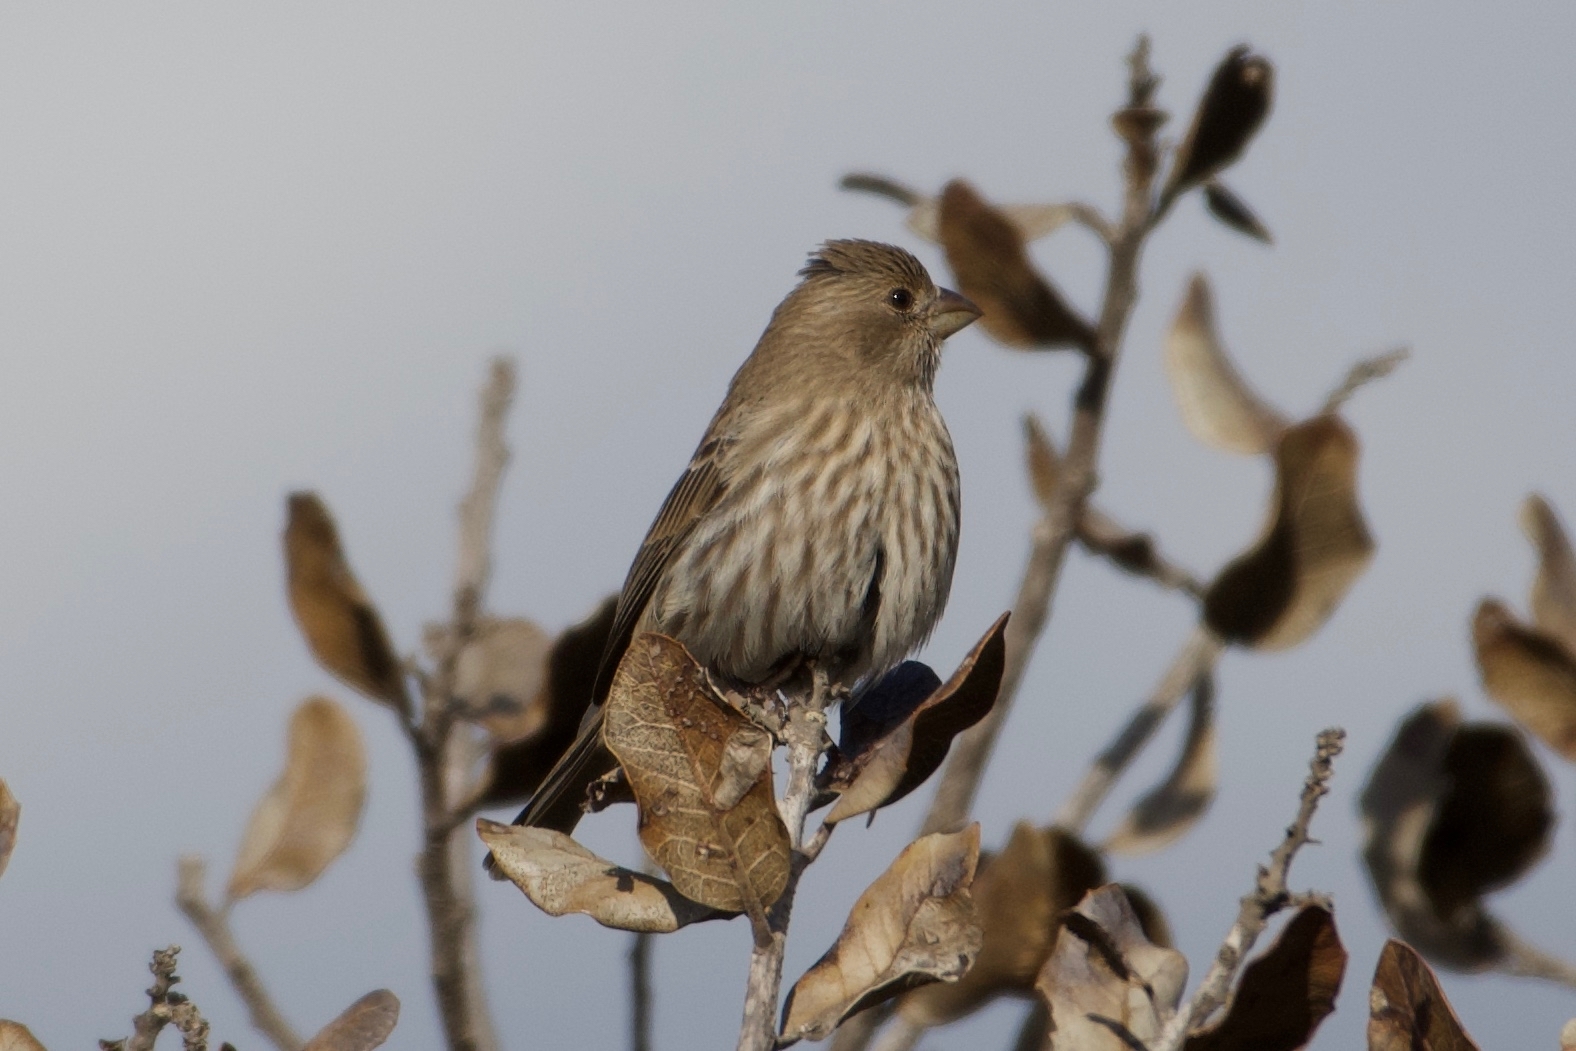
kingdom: Animalia
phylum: Chordata
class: Aves
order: Passeriformes
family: Fringillidae
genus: Haemorhous
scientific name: Haemorhous mexicanus
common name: House finch
